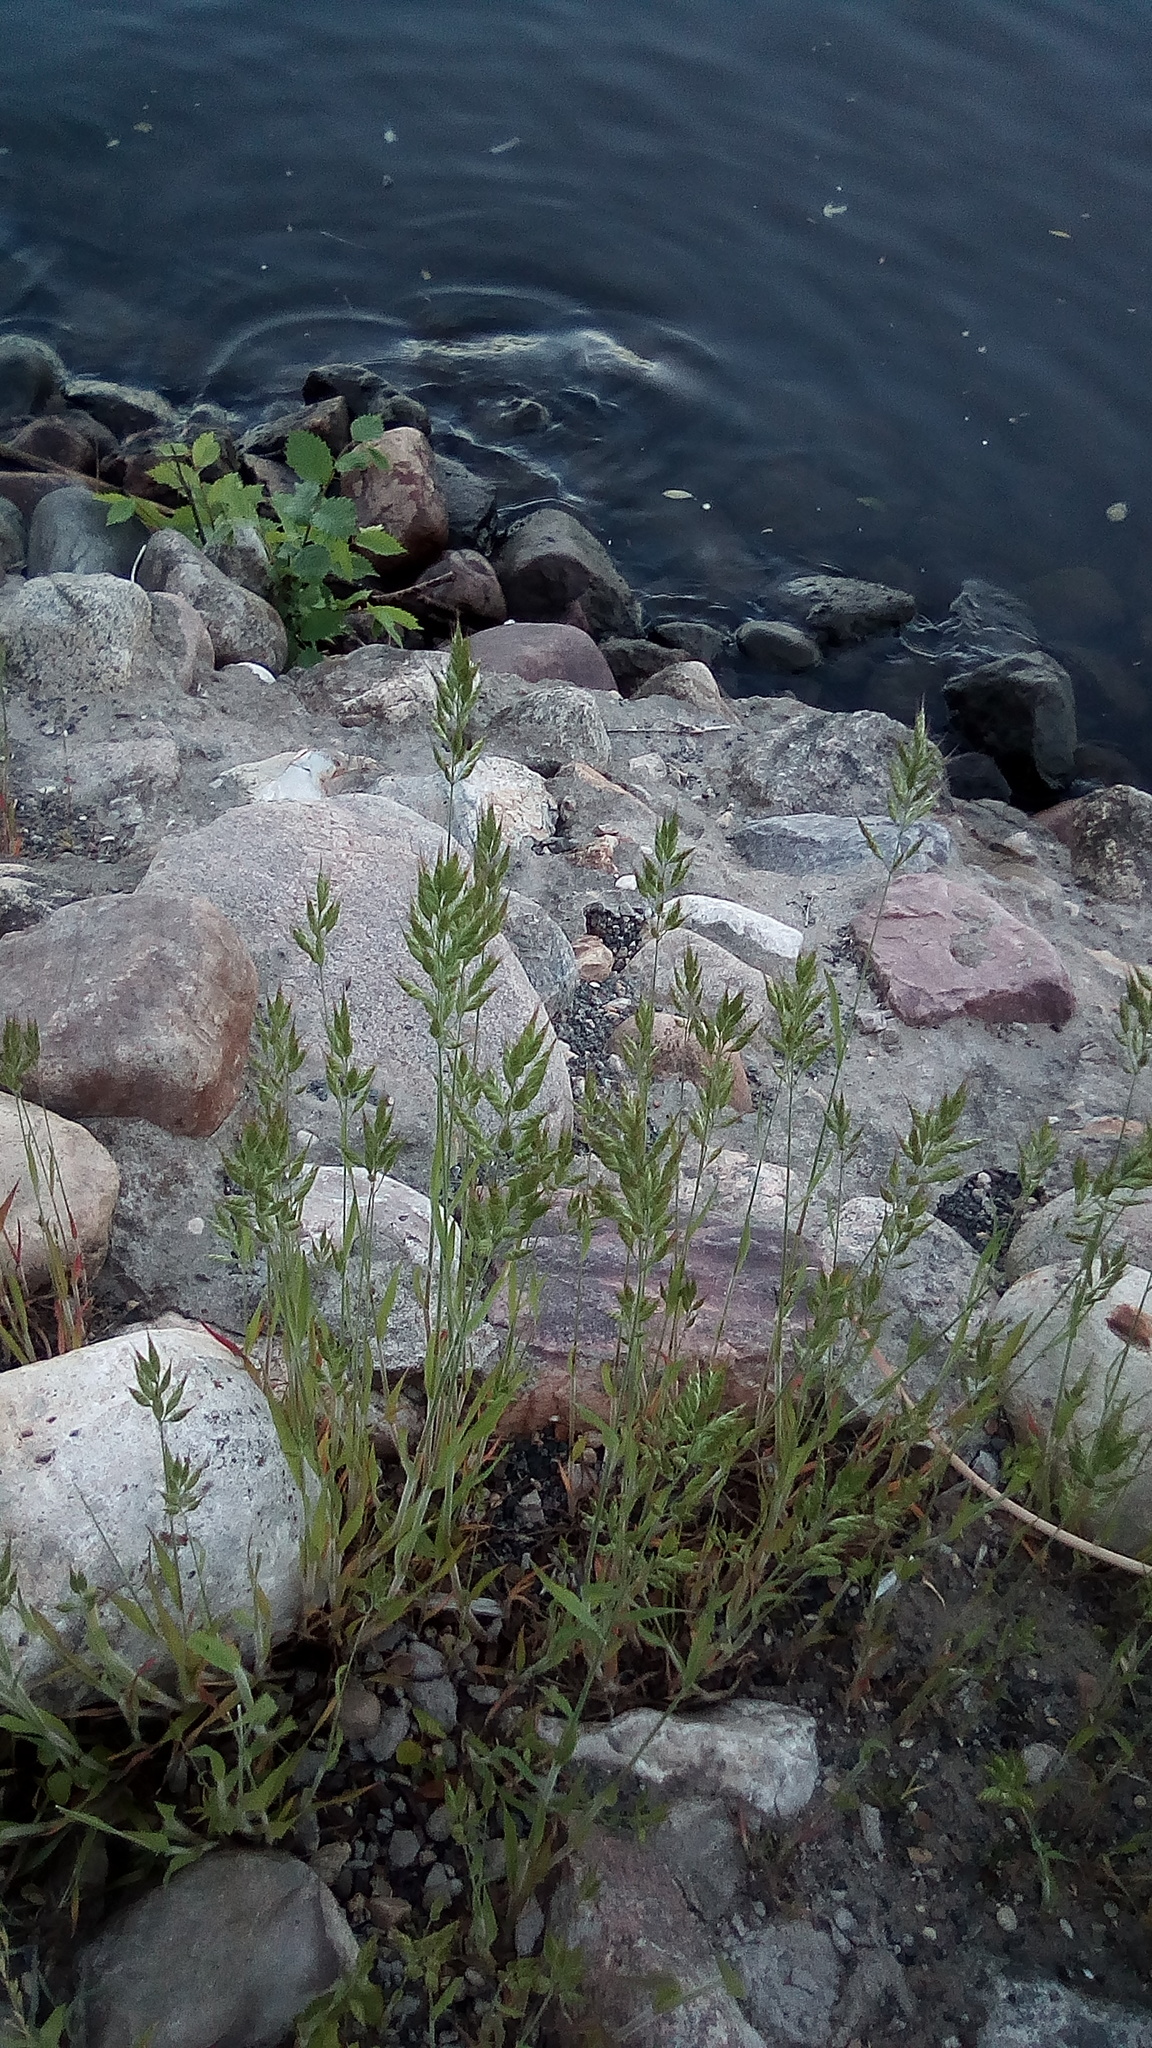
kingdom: Plantae
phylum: Tracheophyta
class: Liliopsida
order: Poales
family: Poaceae
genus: Bromus
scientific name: Bromus hordeaceus
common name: Soft brome
